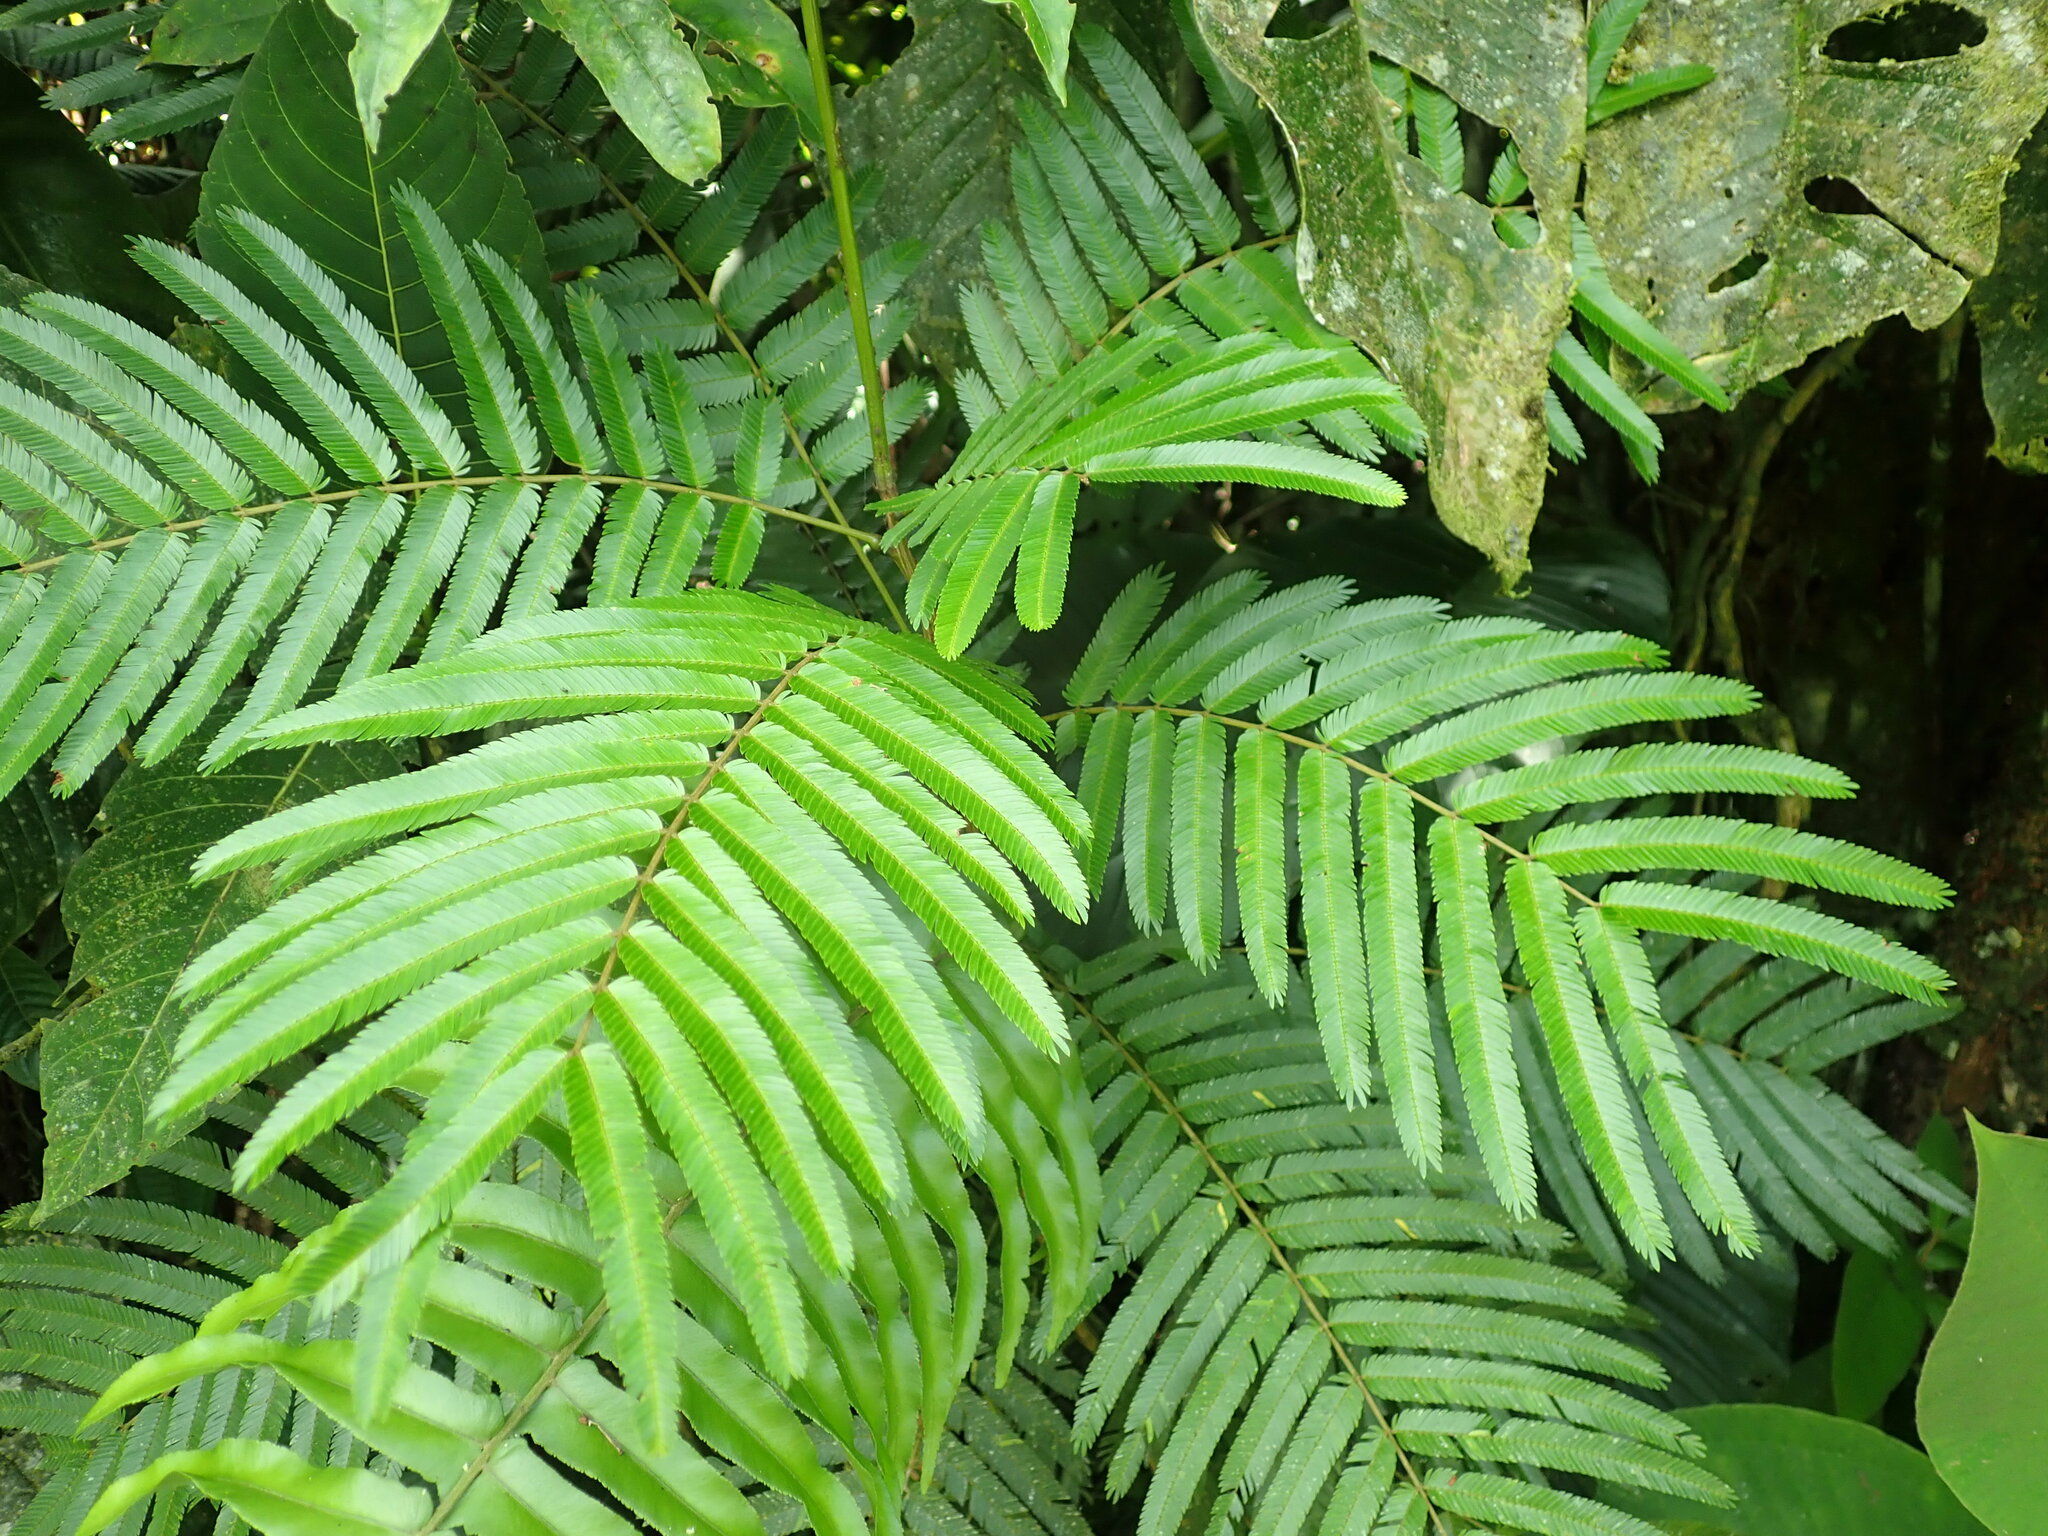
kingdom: Plantae
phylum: Tracheophyta
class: Magnoliopsida
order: Fabales
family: Fabaceae
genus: Pentaclethra
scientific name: Pentaclethra macroloba
